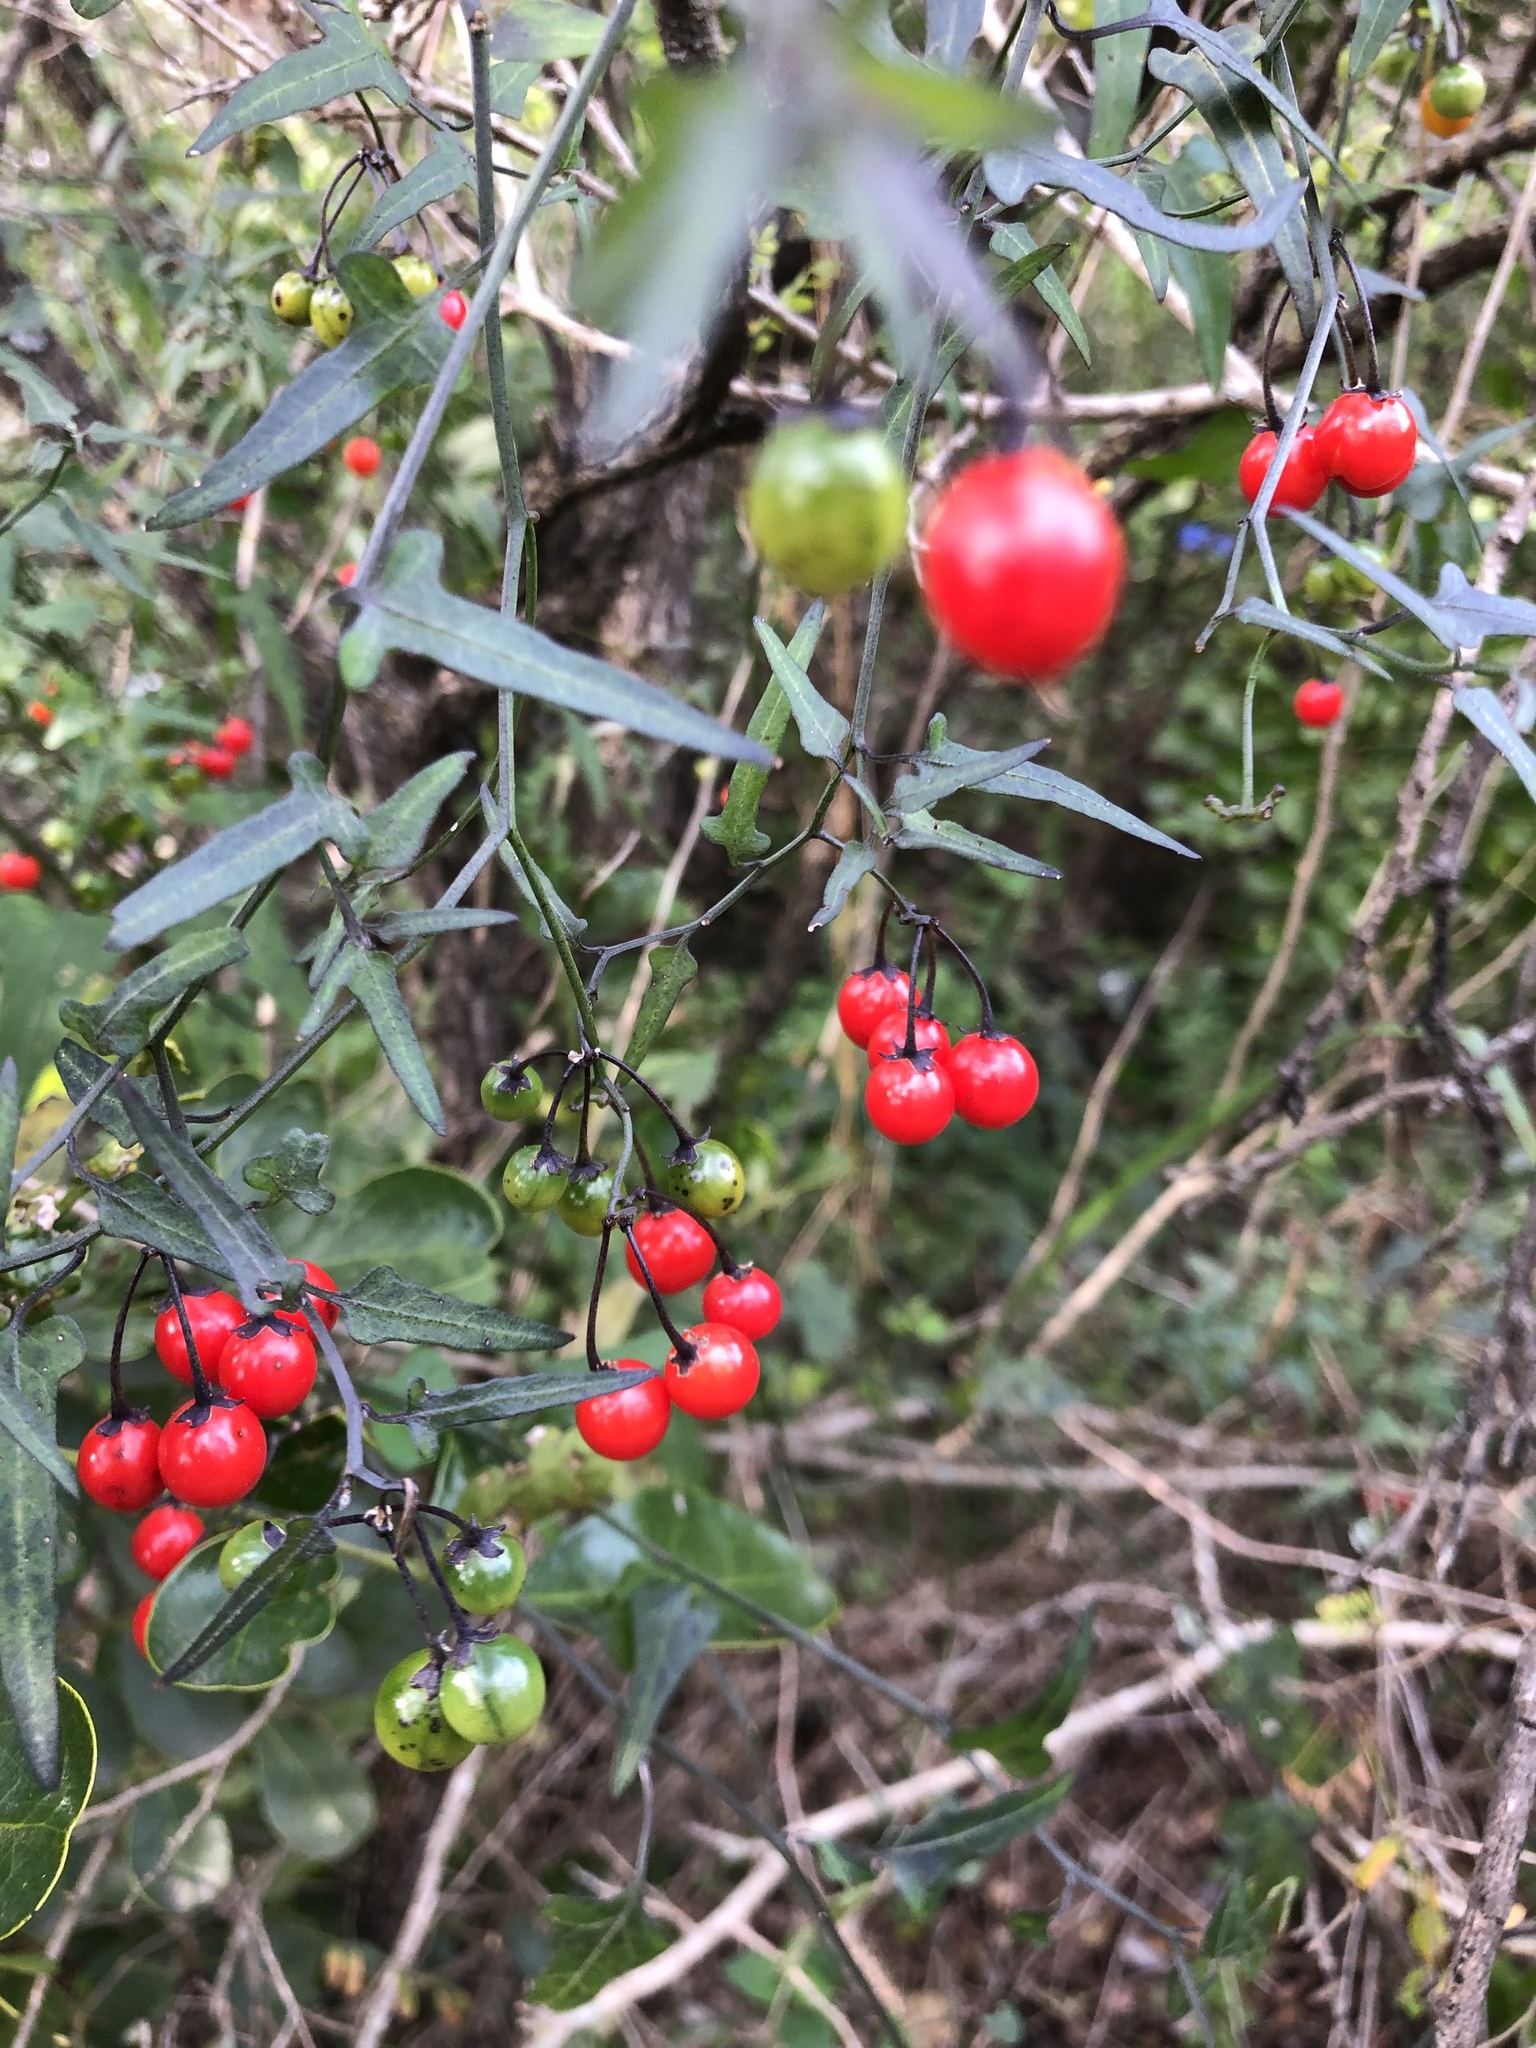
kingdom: Plantae
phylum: Tracheophyta
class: Magnoliopsida
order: Solanales
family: Solanaceae
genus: Solanum
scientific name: Solanum triquetrum
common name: Texas nightshade
